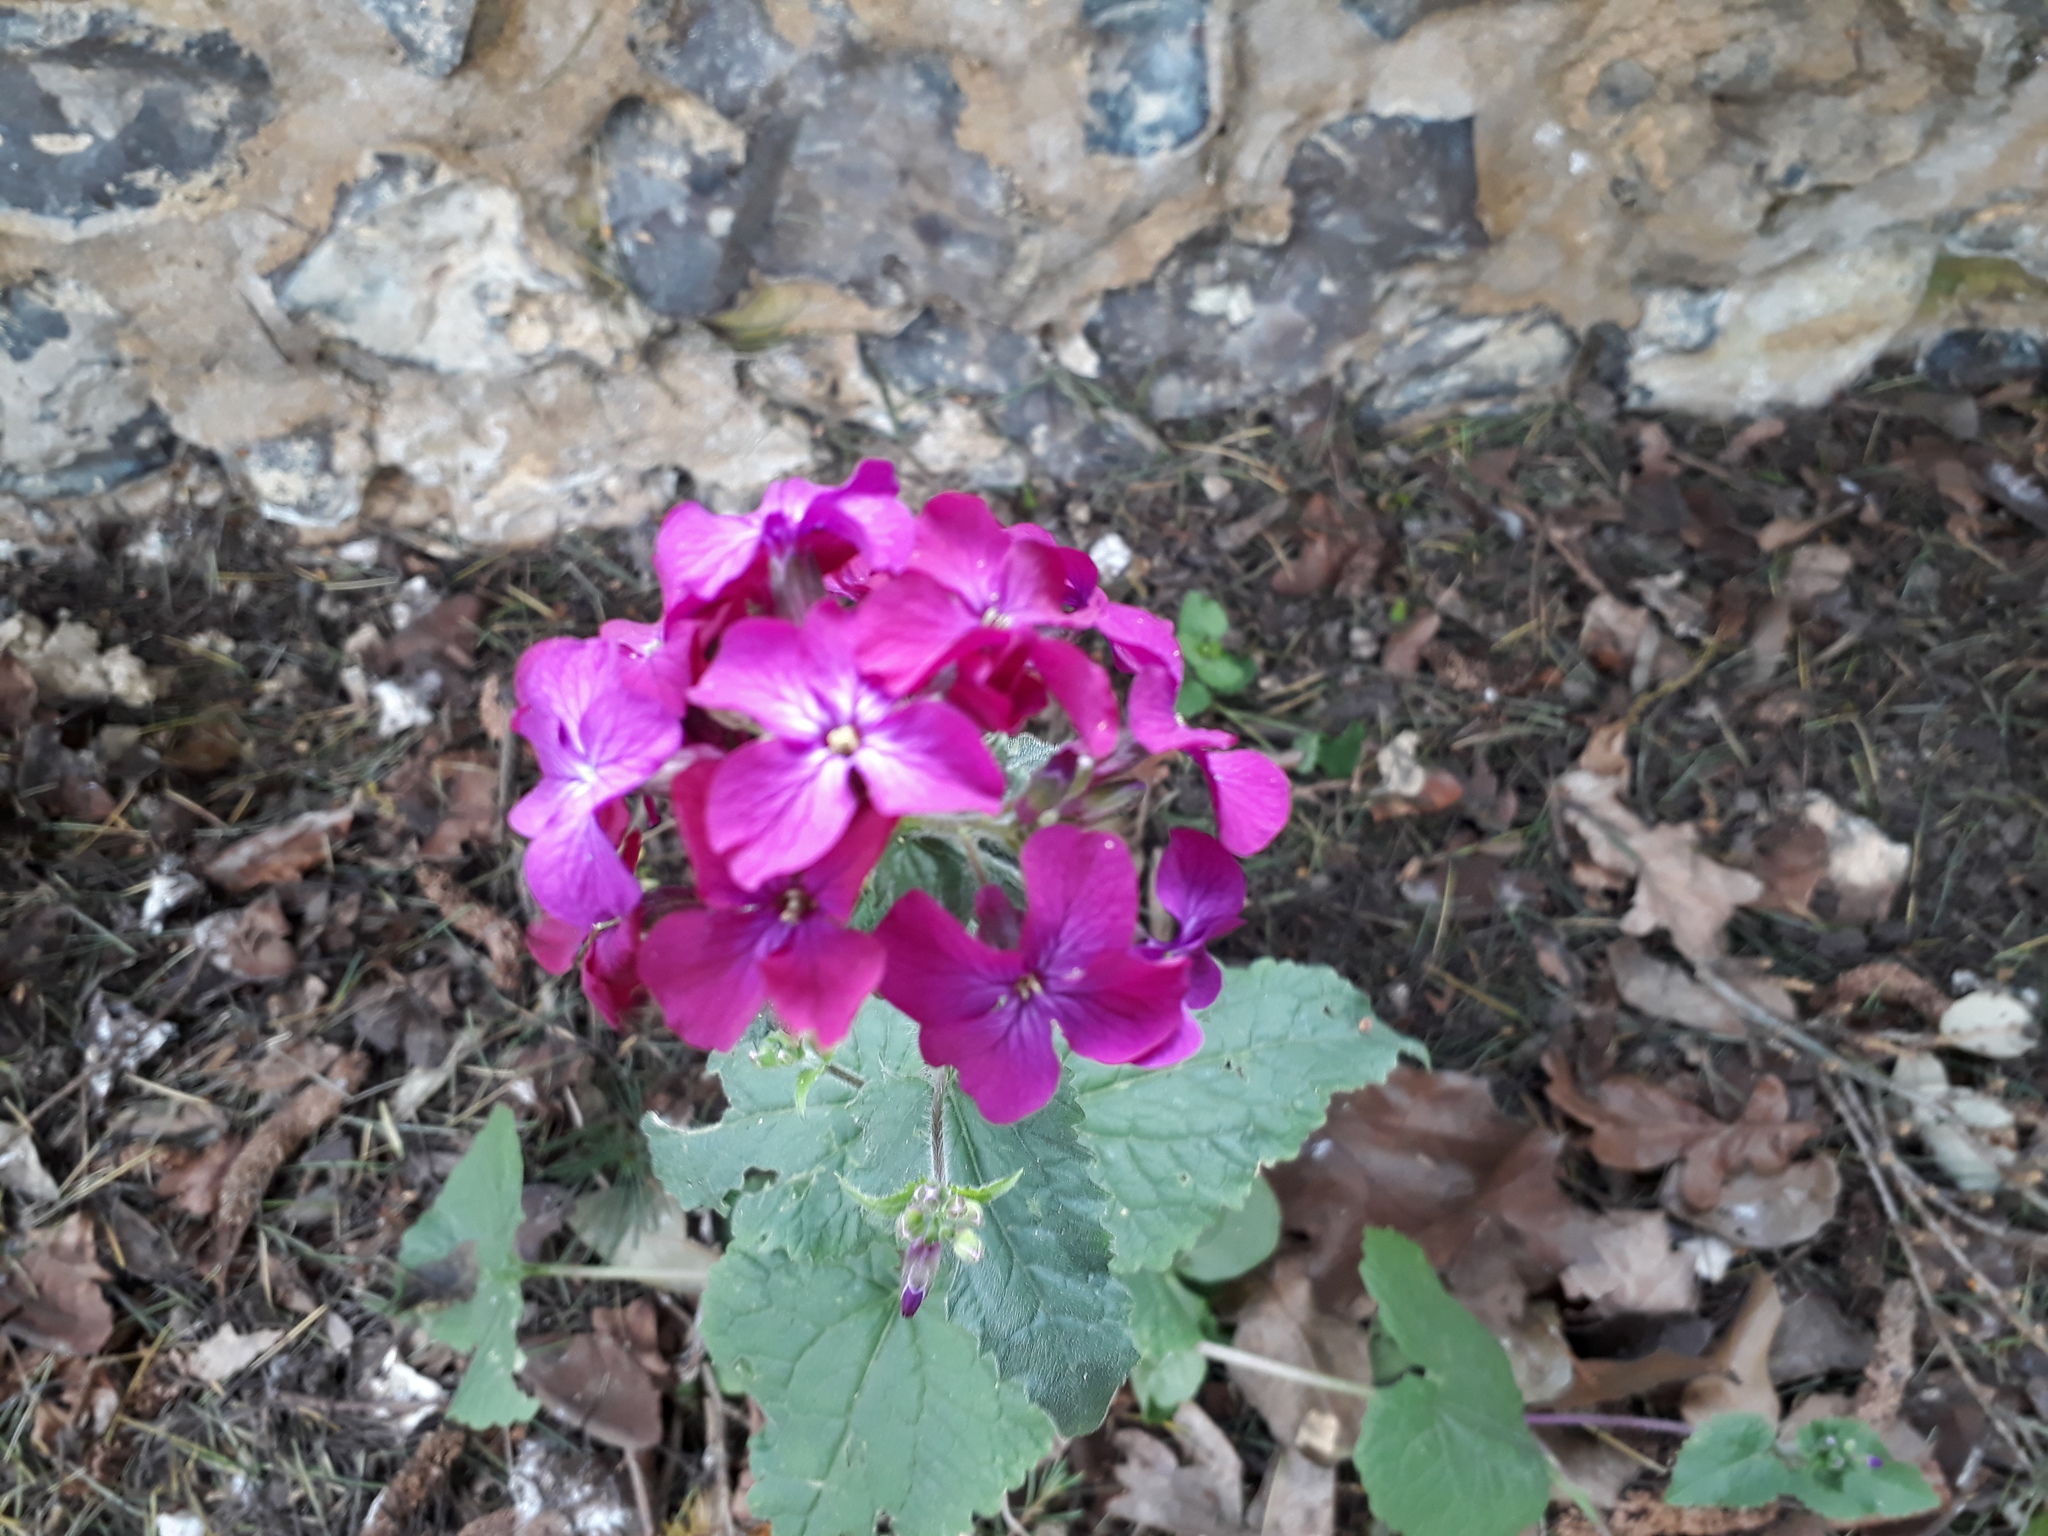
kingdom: Plantae
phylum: Tracheophyta
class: Magnoliopsida
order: Brassicales
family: Brassicaceae
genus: Lunaria
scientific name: Lunaria annua
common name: Honesty
